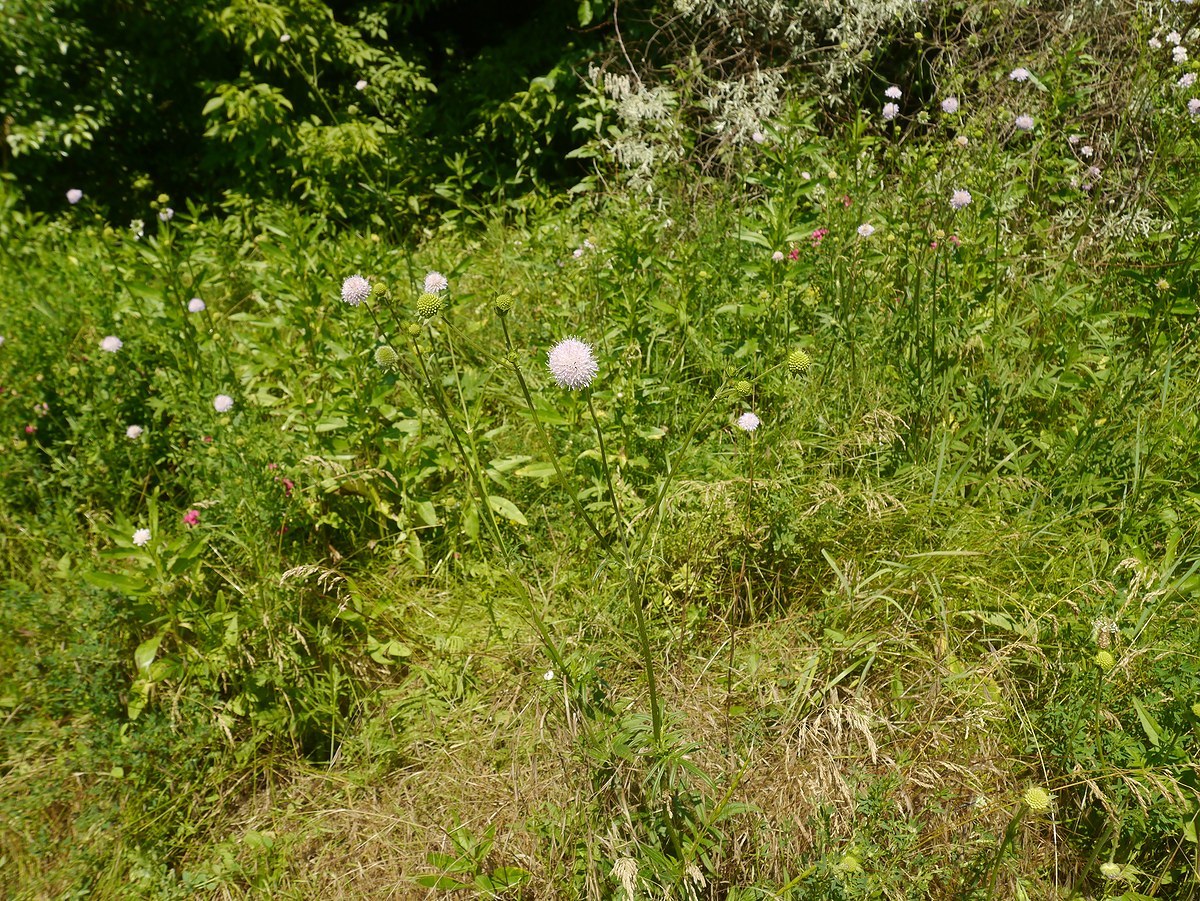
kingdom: Plantae
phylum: Tracheophyta
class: Magnoliopsida
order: Dipsacales
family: Caprifoliaceae
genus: Knautia
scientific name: Knautia arvensis
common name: Field scabiosa
